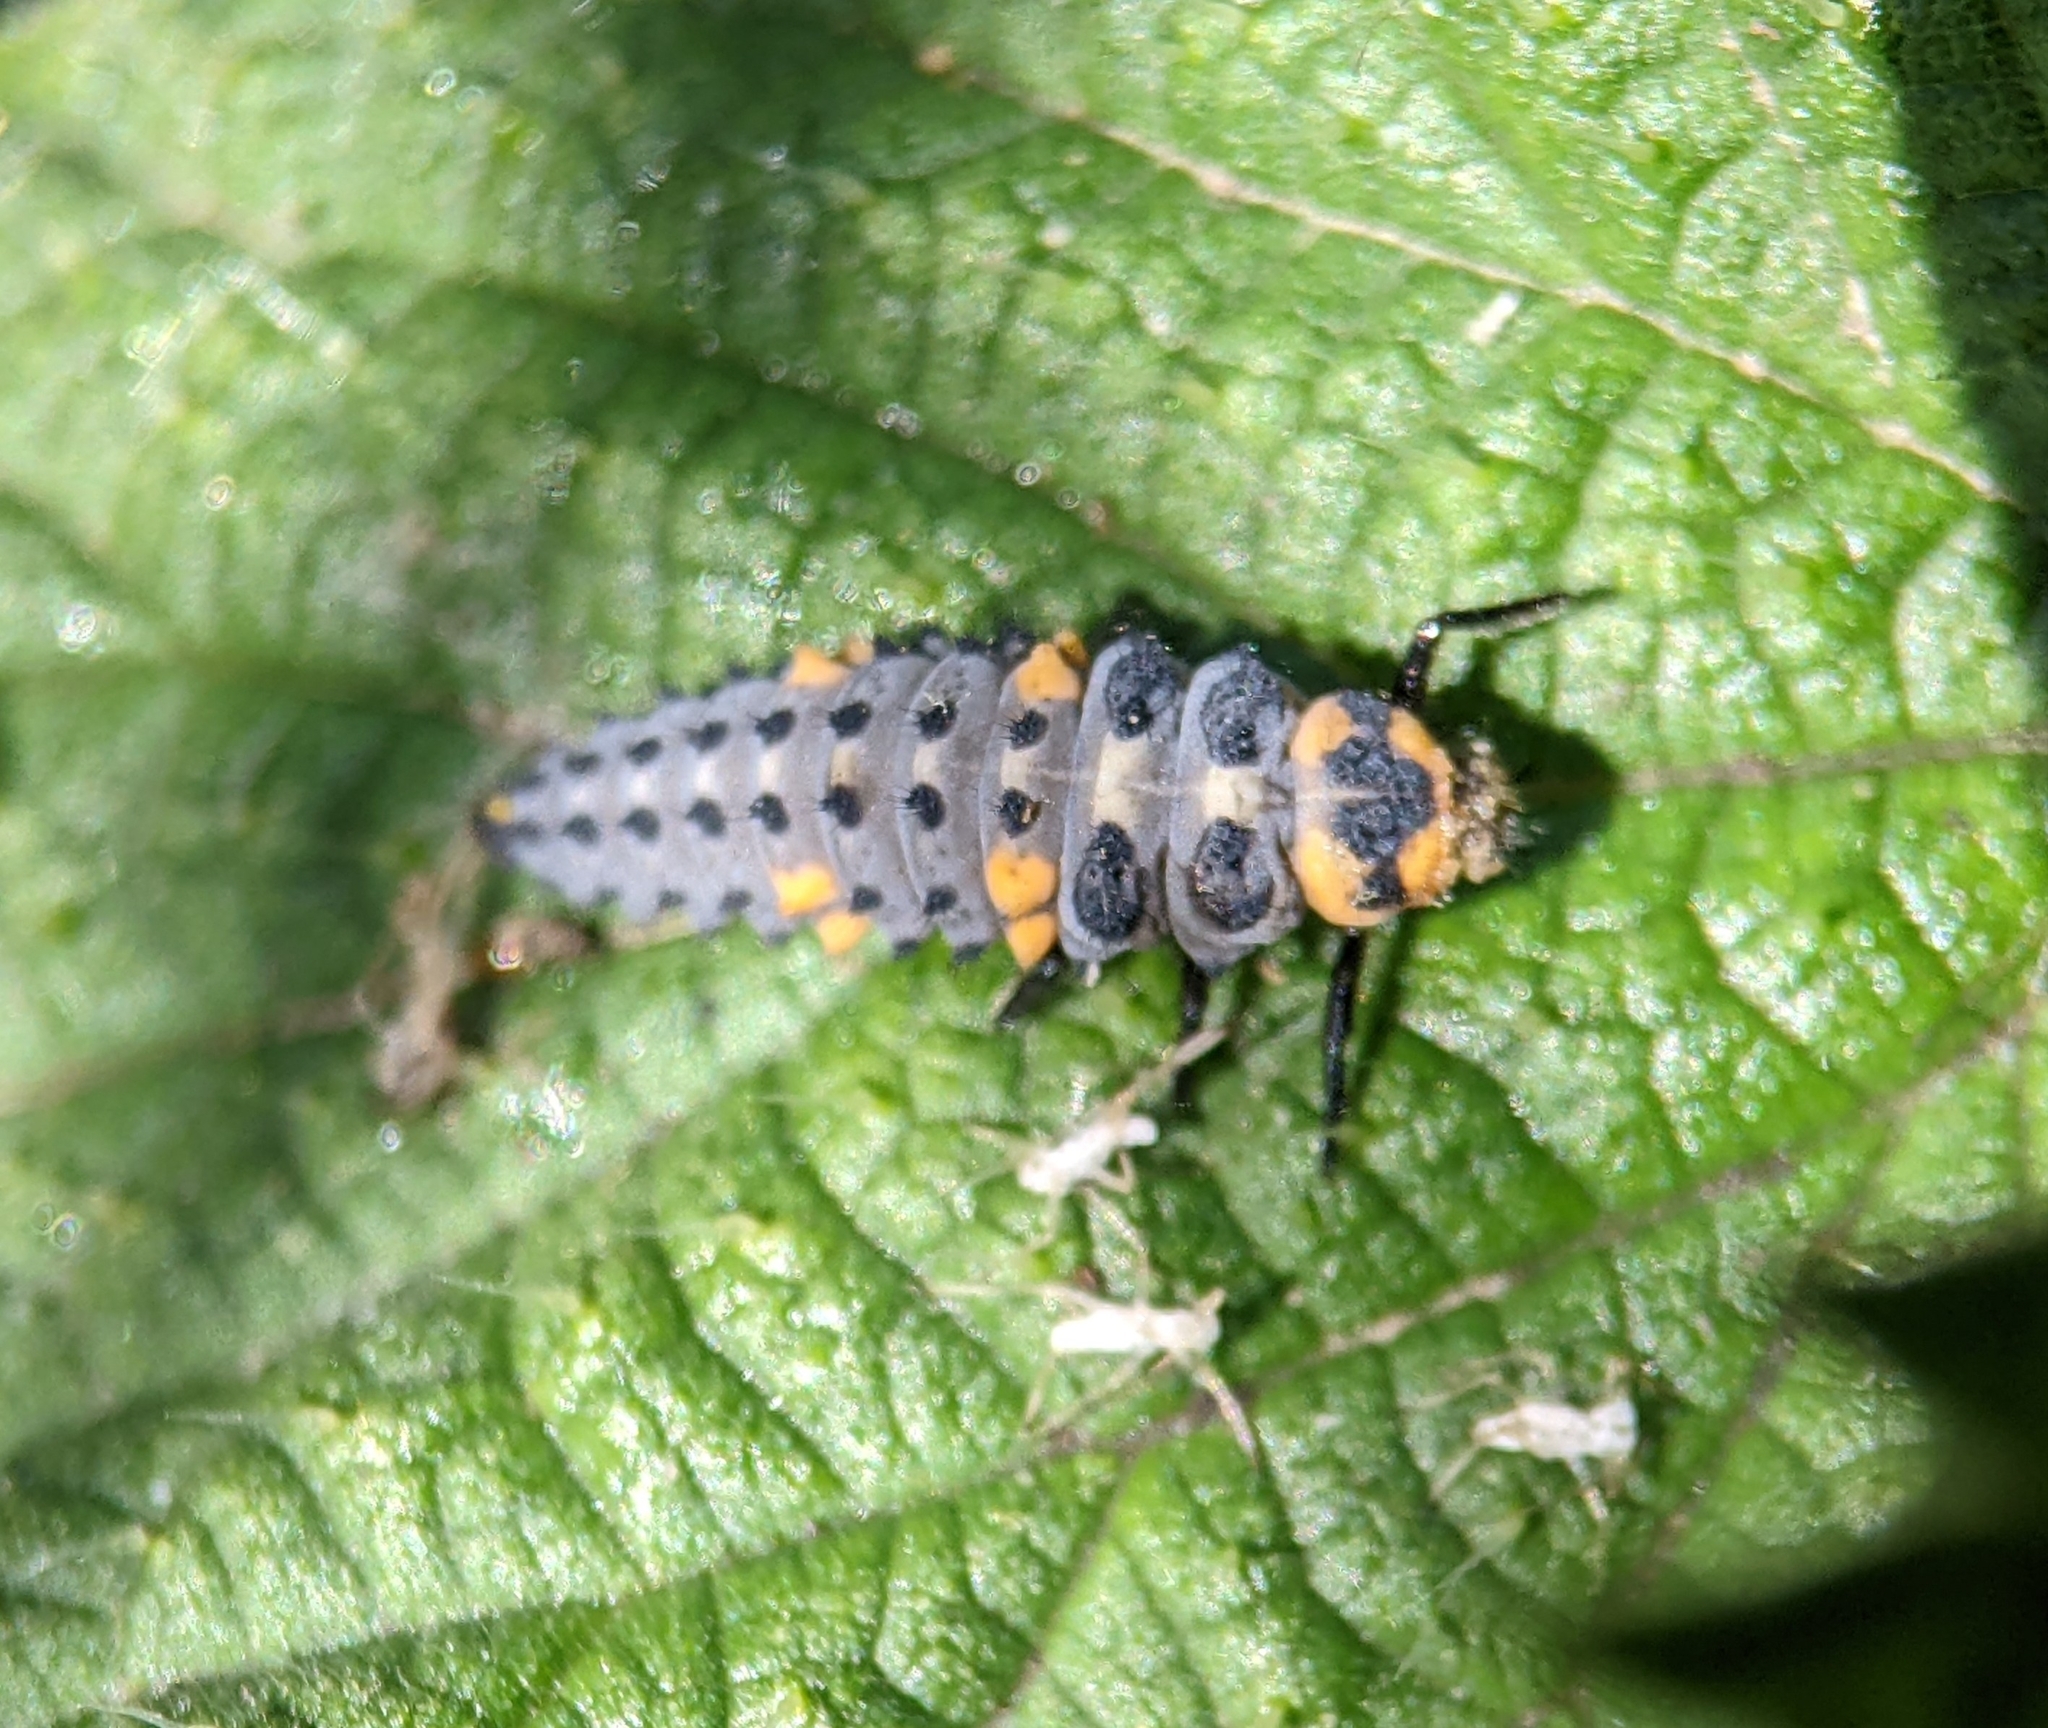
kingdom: Animalia
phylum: Arthropoda
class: Insecta
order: Coleoptera
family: Coccinellidae
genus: Coccinella
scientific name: Coccinella septempunctata
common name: Sevenspotted lady beetle
